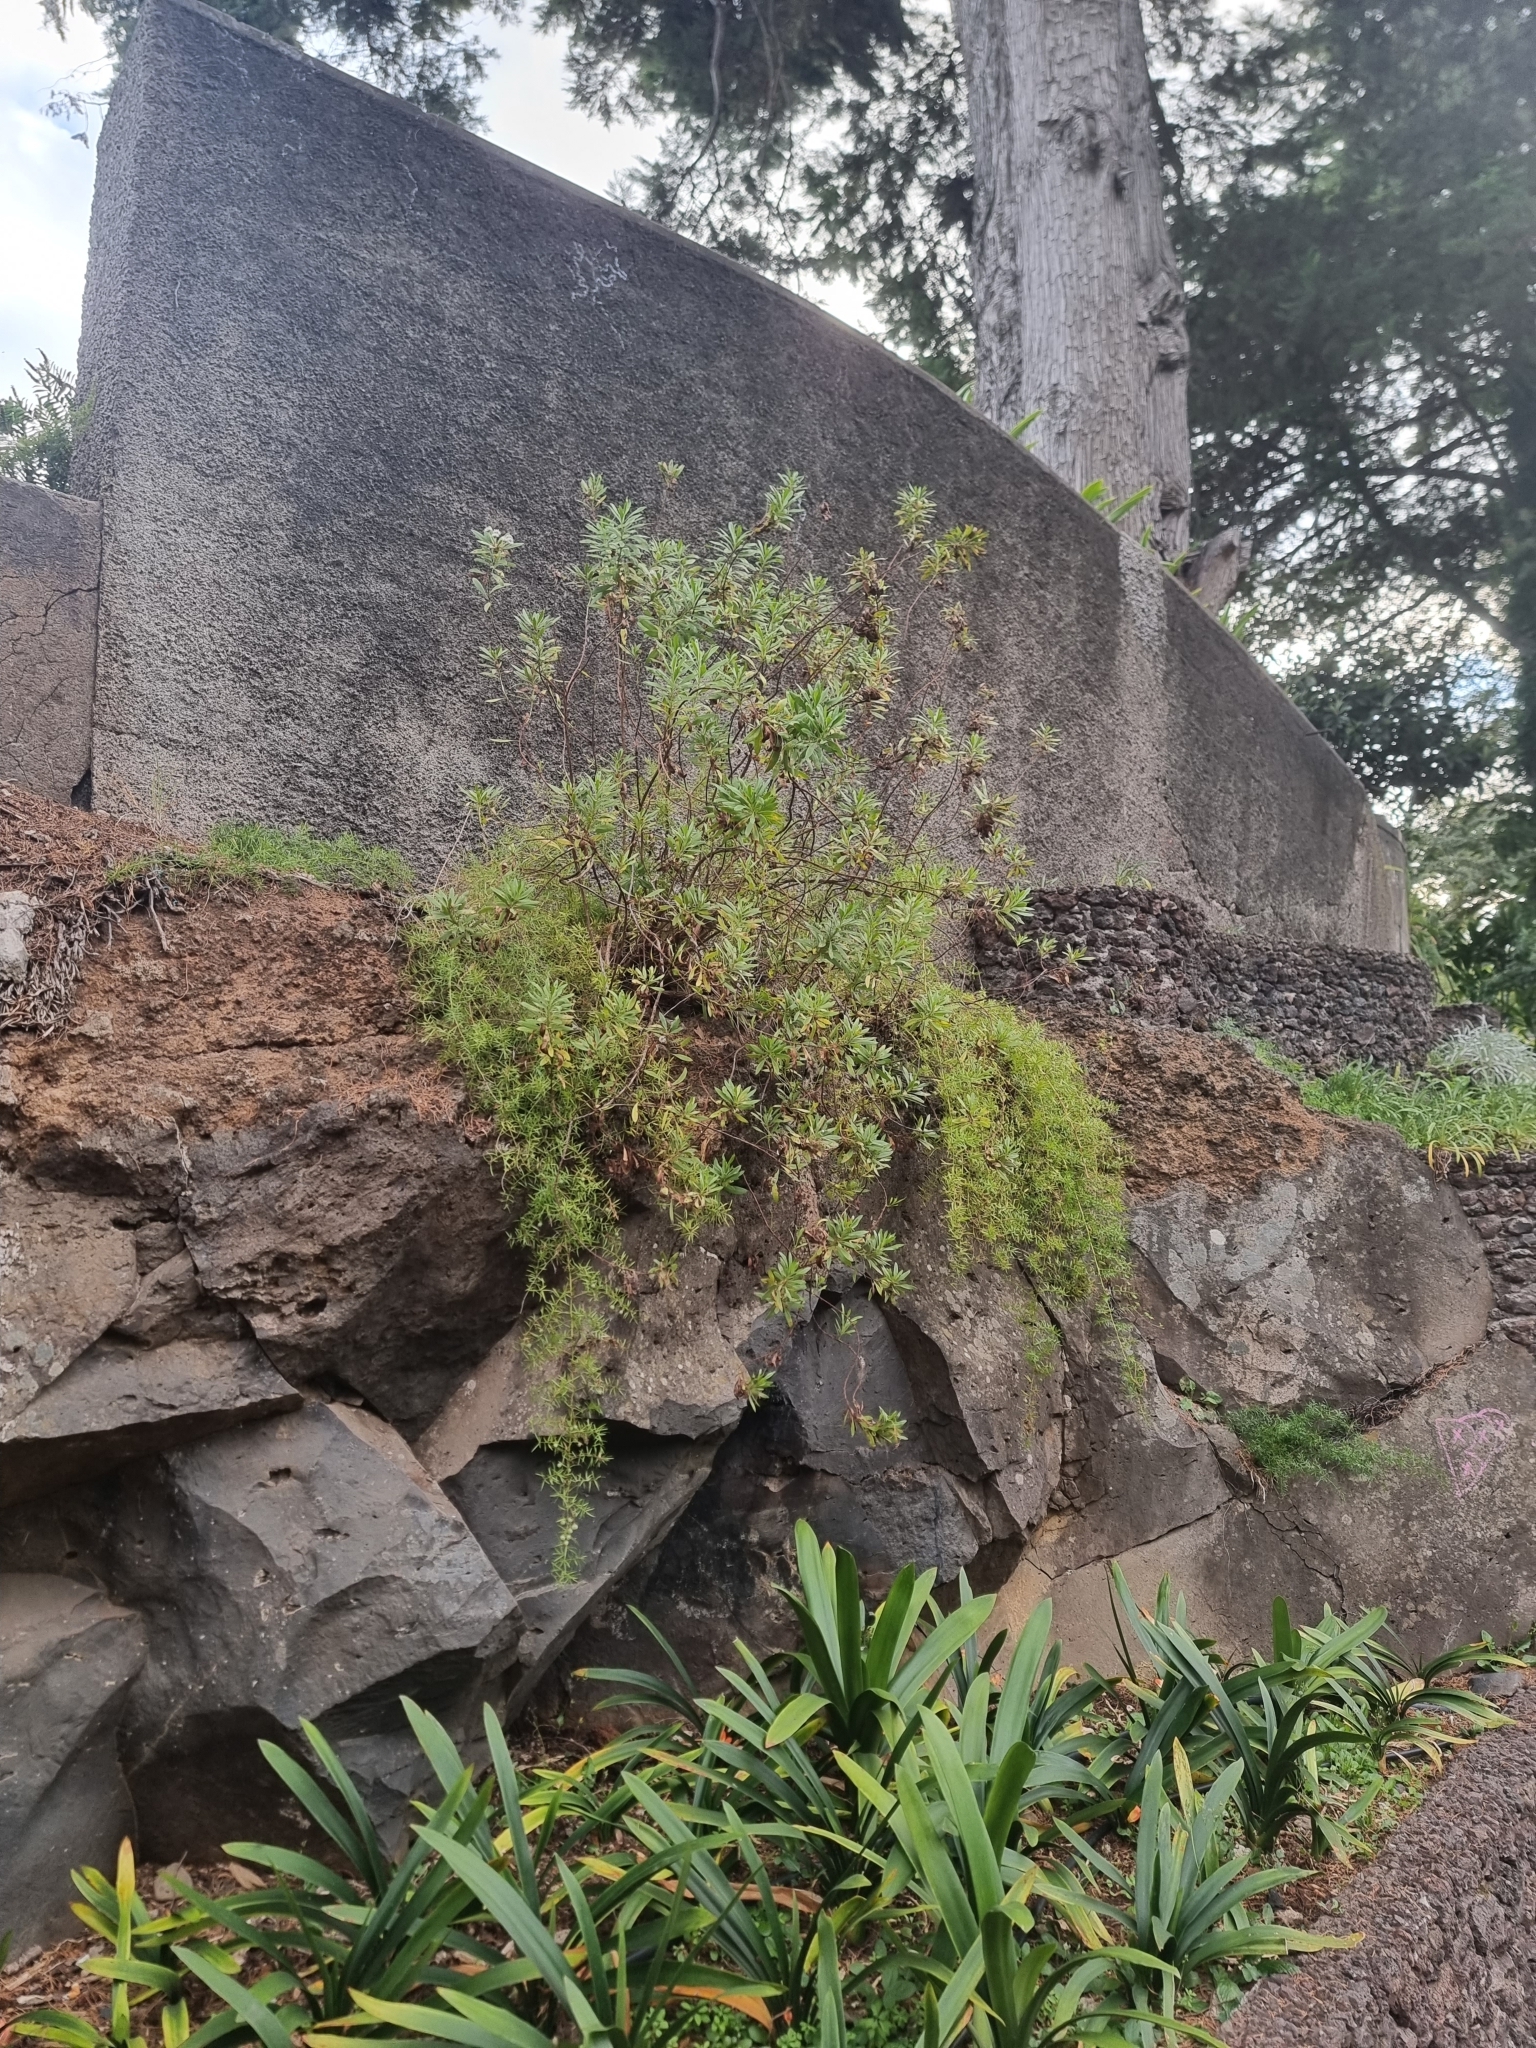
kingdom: Plantae
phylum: Tracheophyta
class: Magnoliopsida
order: Lamiales
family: Plantaginaceae
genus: Globularia
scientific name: Globularia salicina
